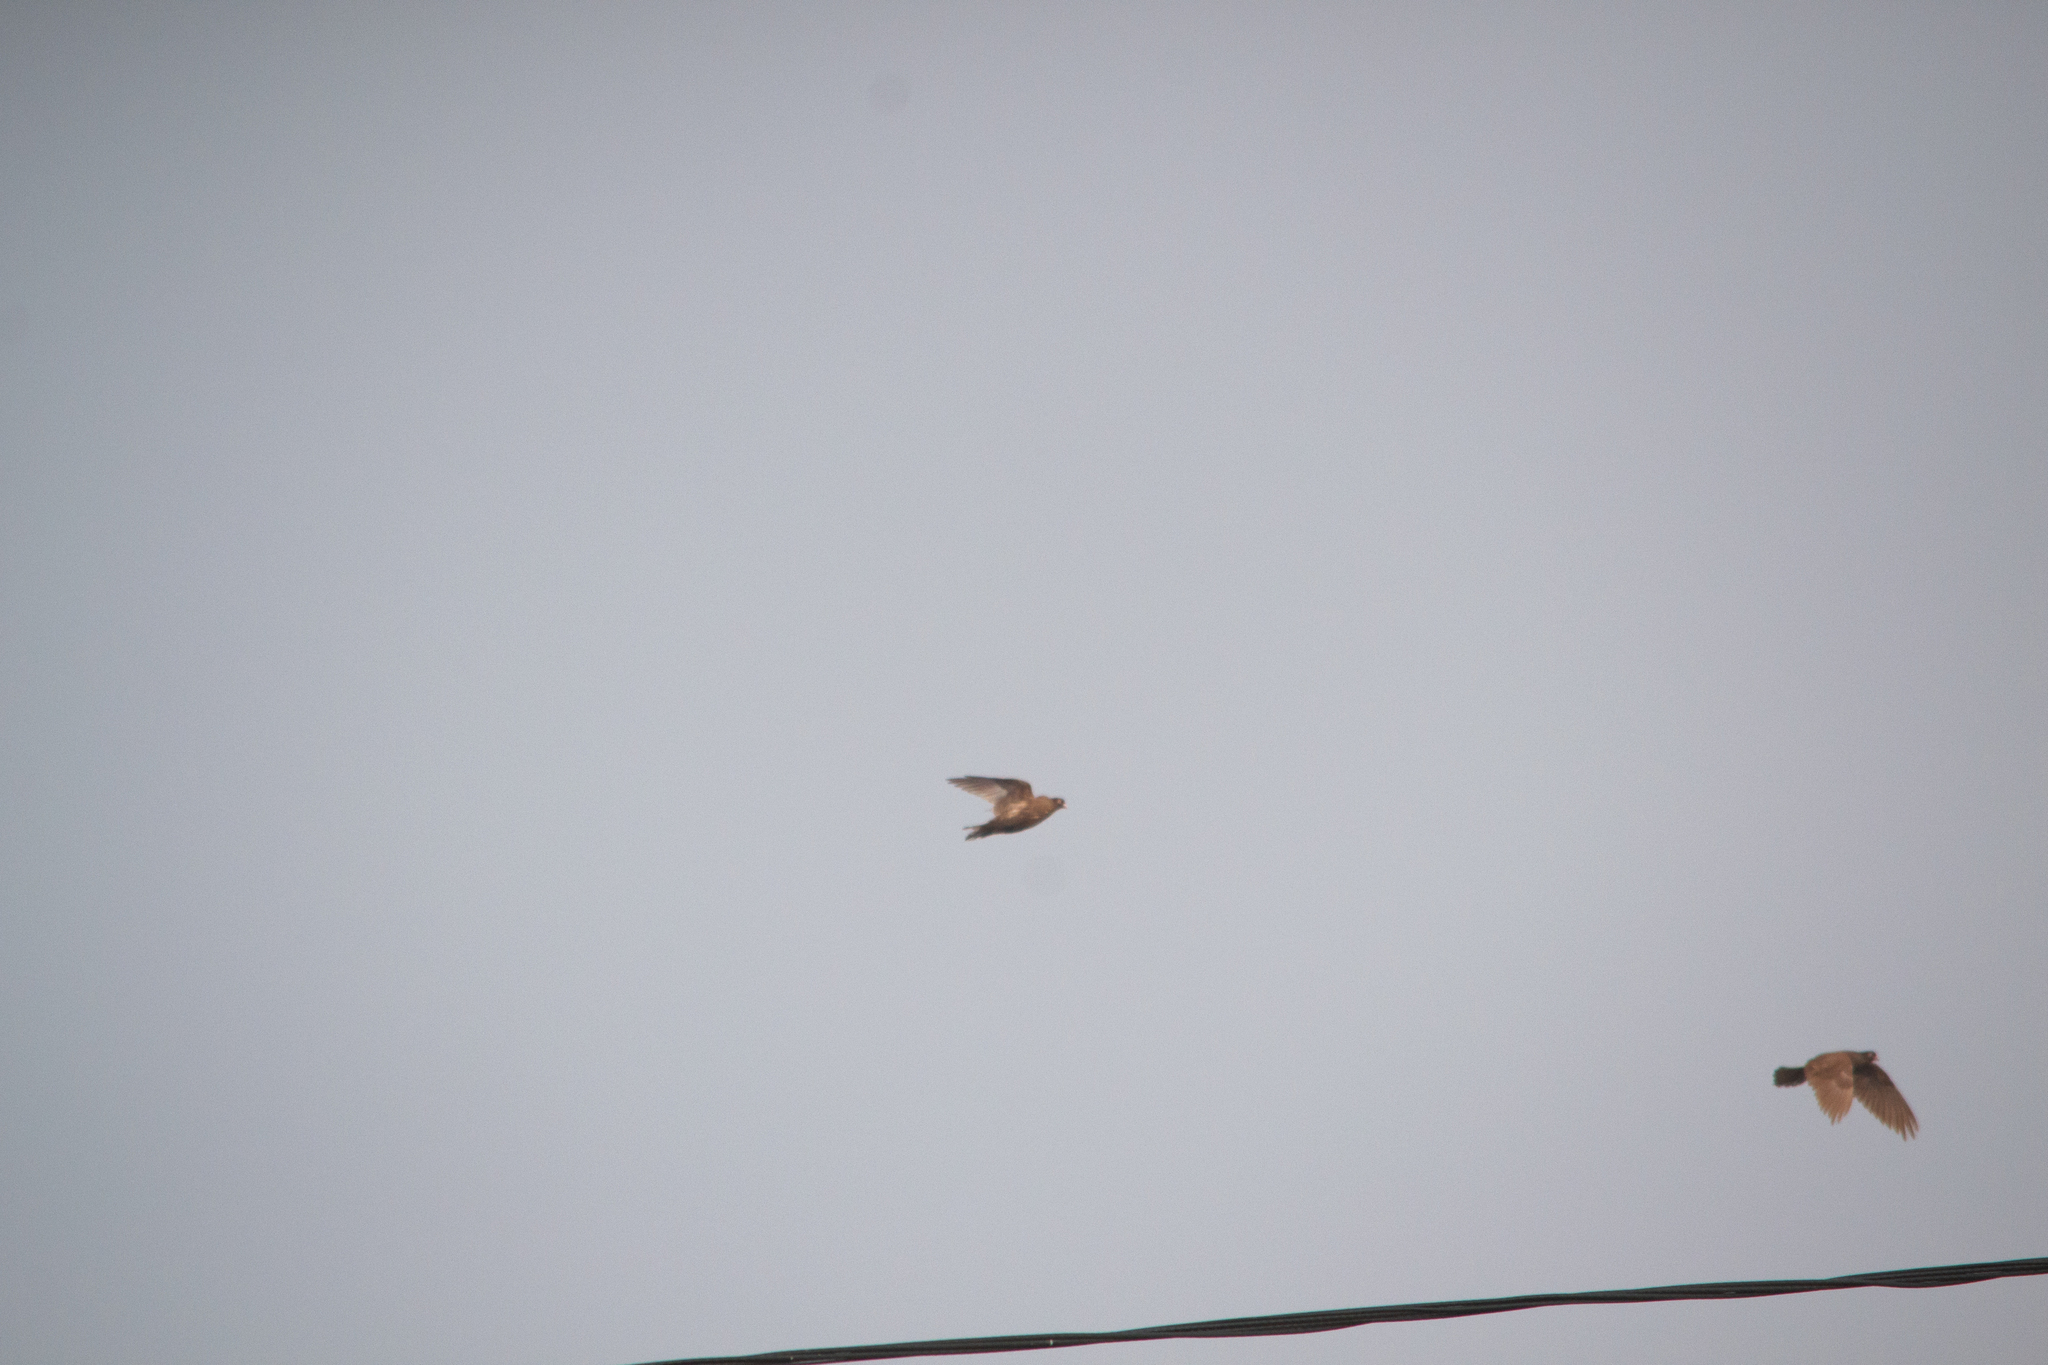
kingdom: Animalia
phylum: Chordata
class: Aves
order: Columbiformes
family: Columbidae
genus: Columba
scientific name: Columba livia
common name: Rock pigeon
